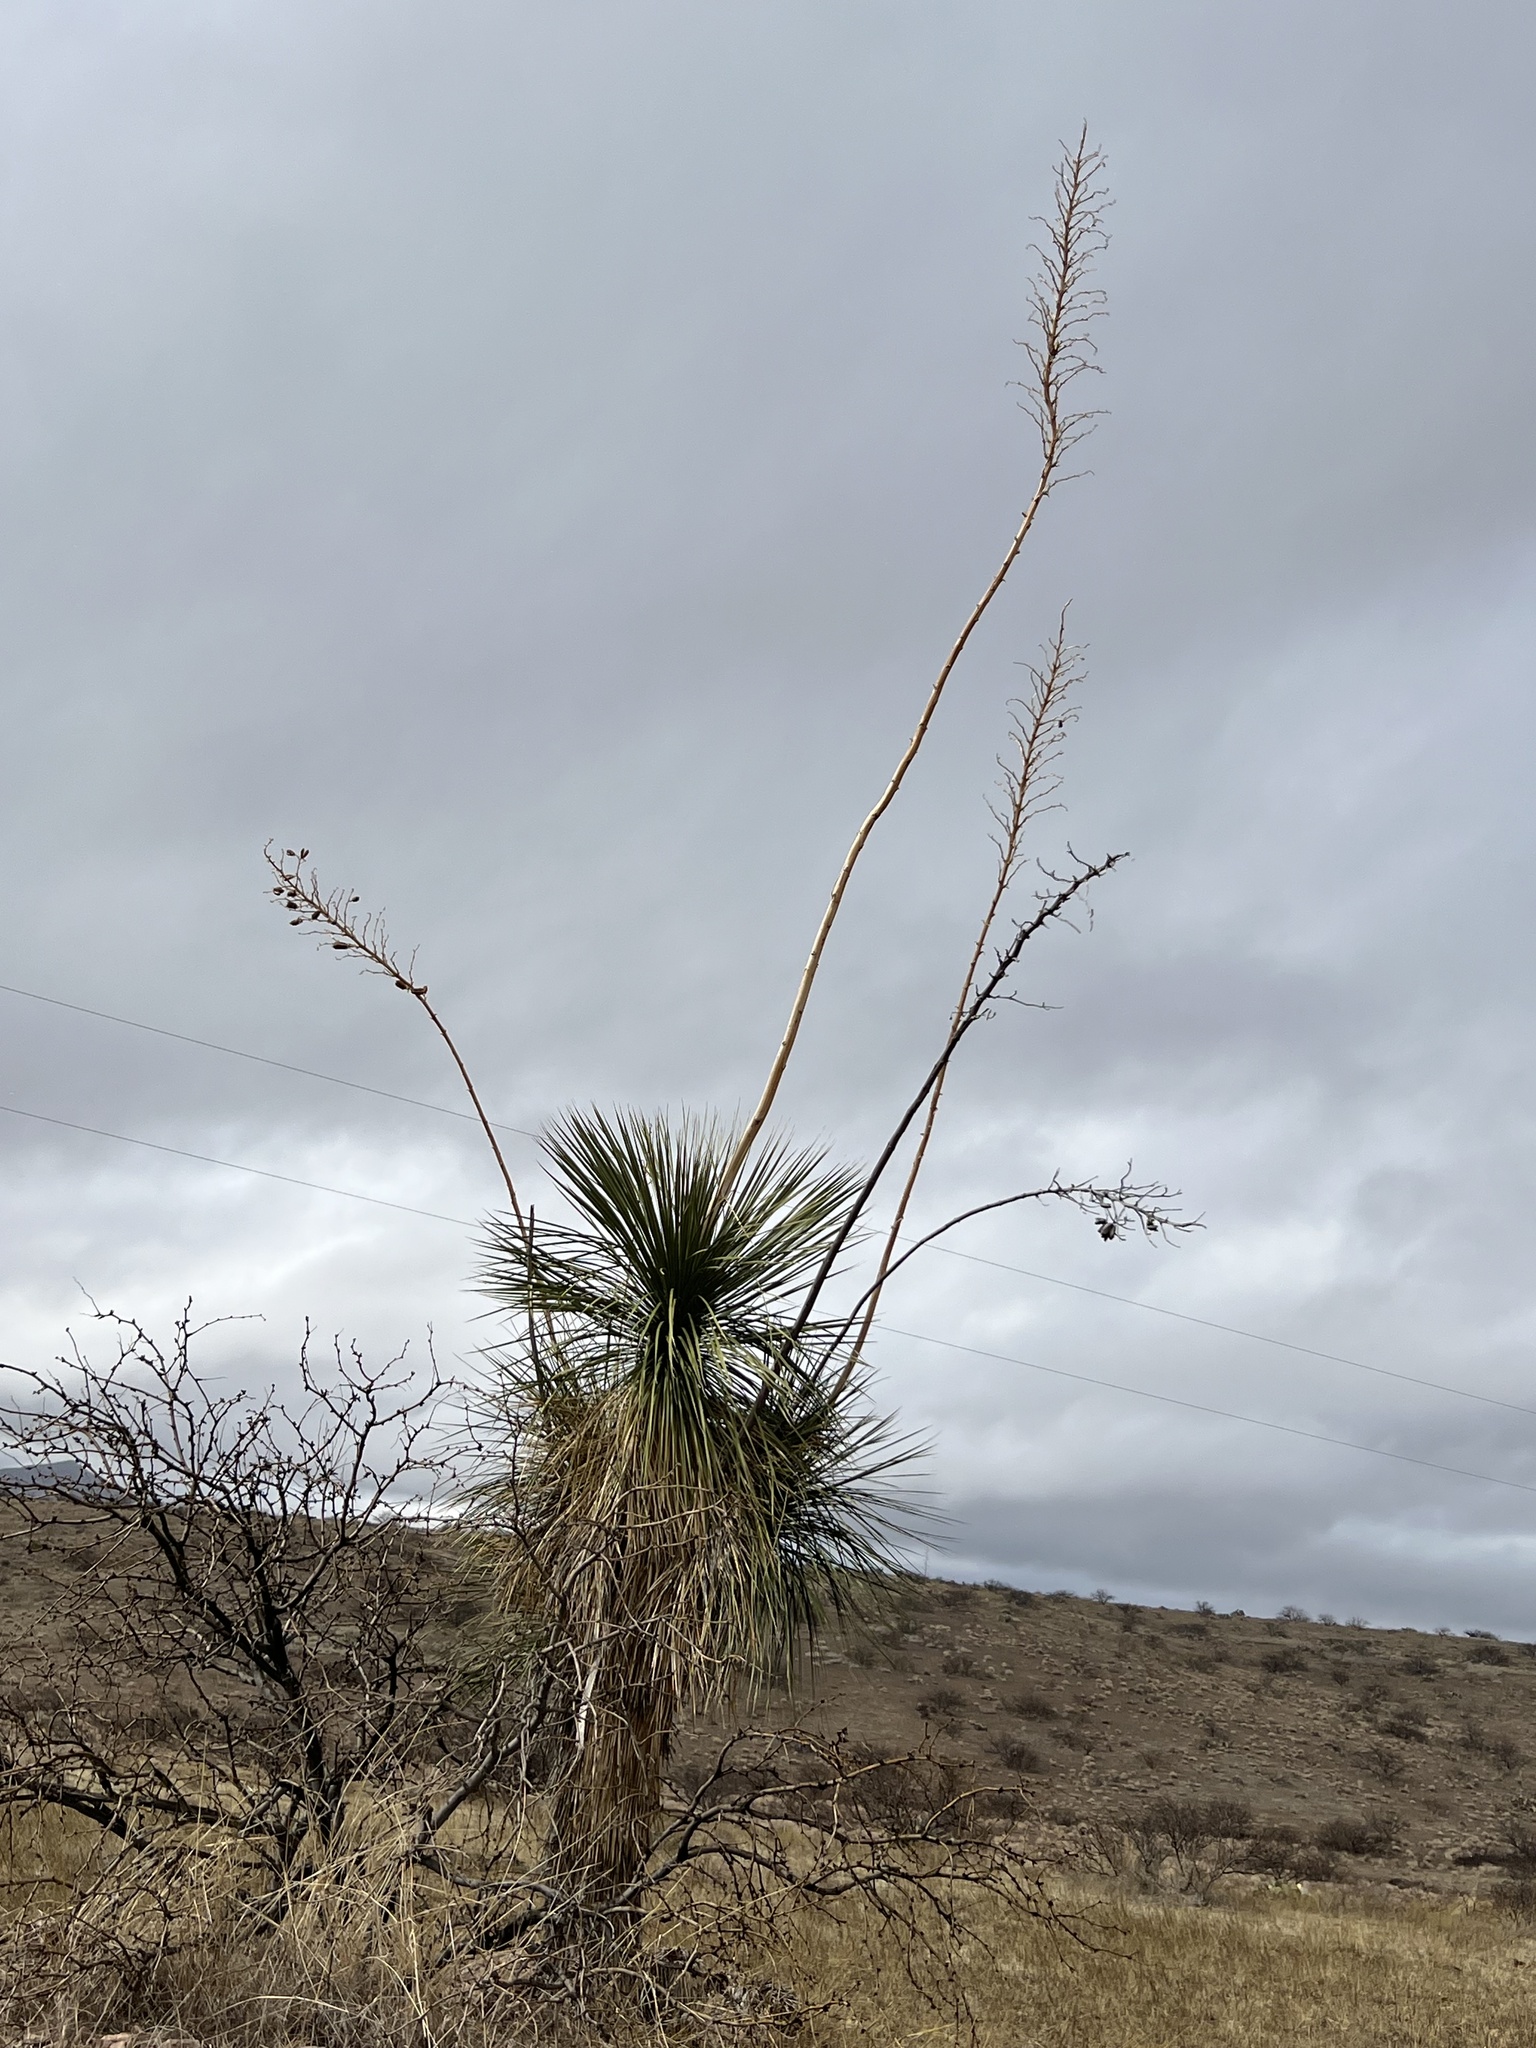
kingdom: Plantae
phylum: Tracheophyta
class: Liliopsida
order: Asparagales
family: Asparagaceae
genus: Yucca
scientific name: Yucca elata
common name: Palmella
